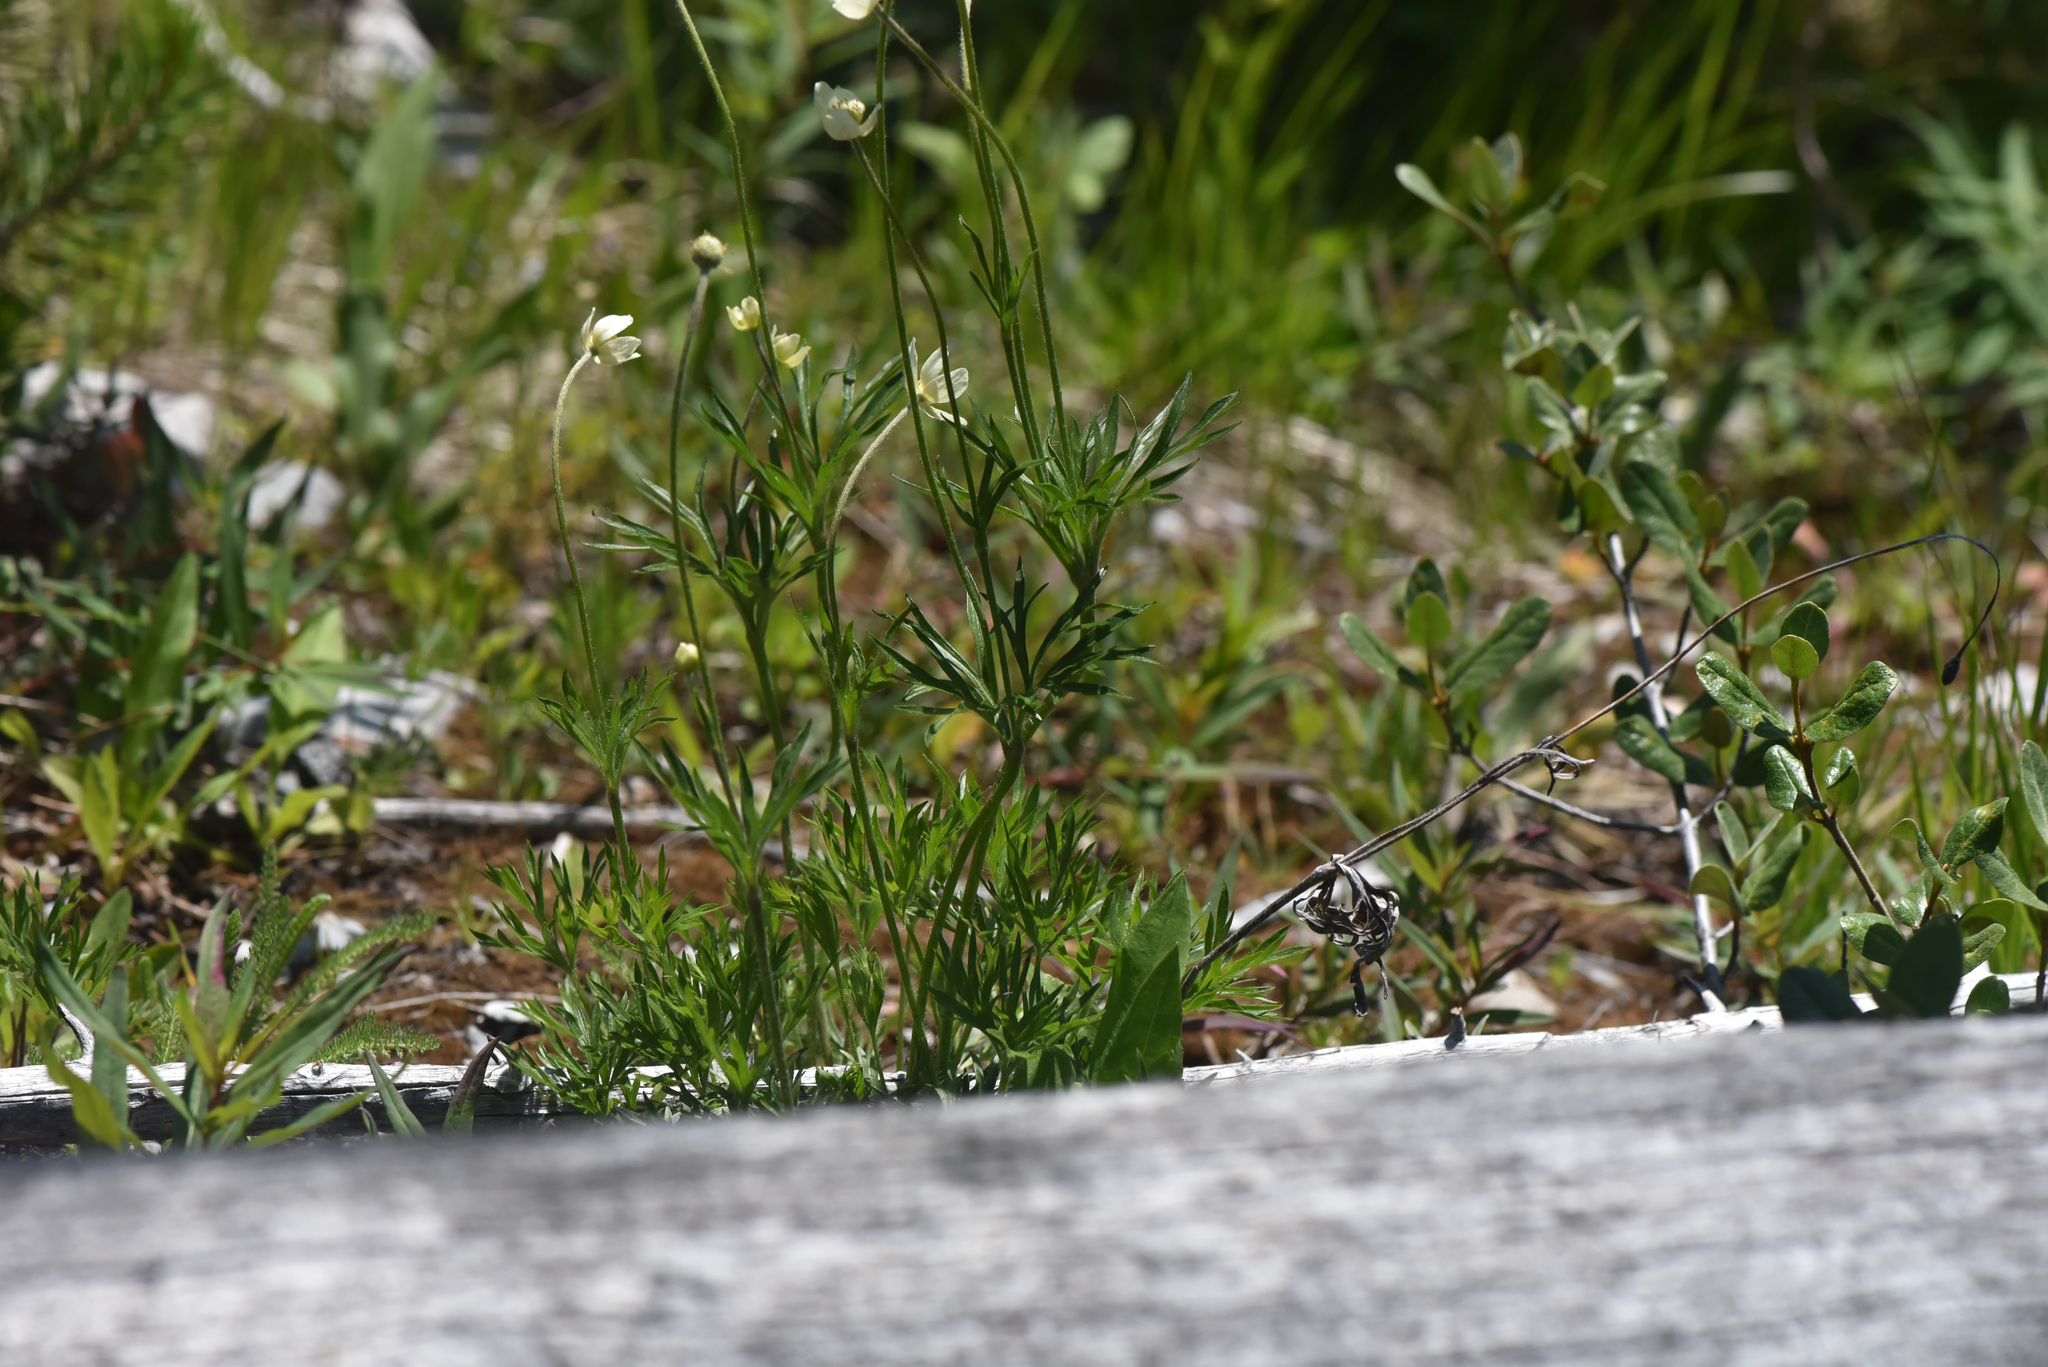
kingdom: Plantae
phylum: Tracheophyta
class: Magnoliopsida
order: Ranunculales
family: Ranunculaceae
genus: Anemone
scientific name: Anemone multifida
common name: Bird's-foot anemone
